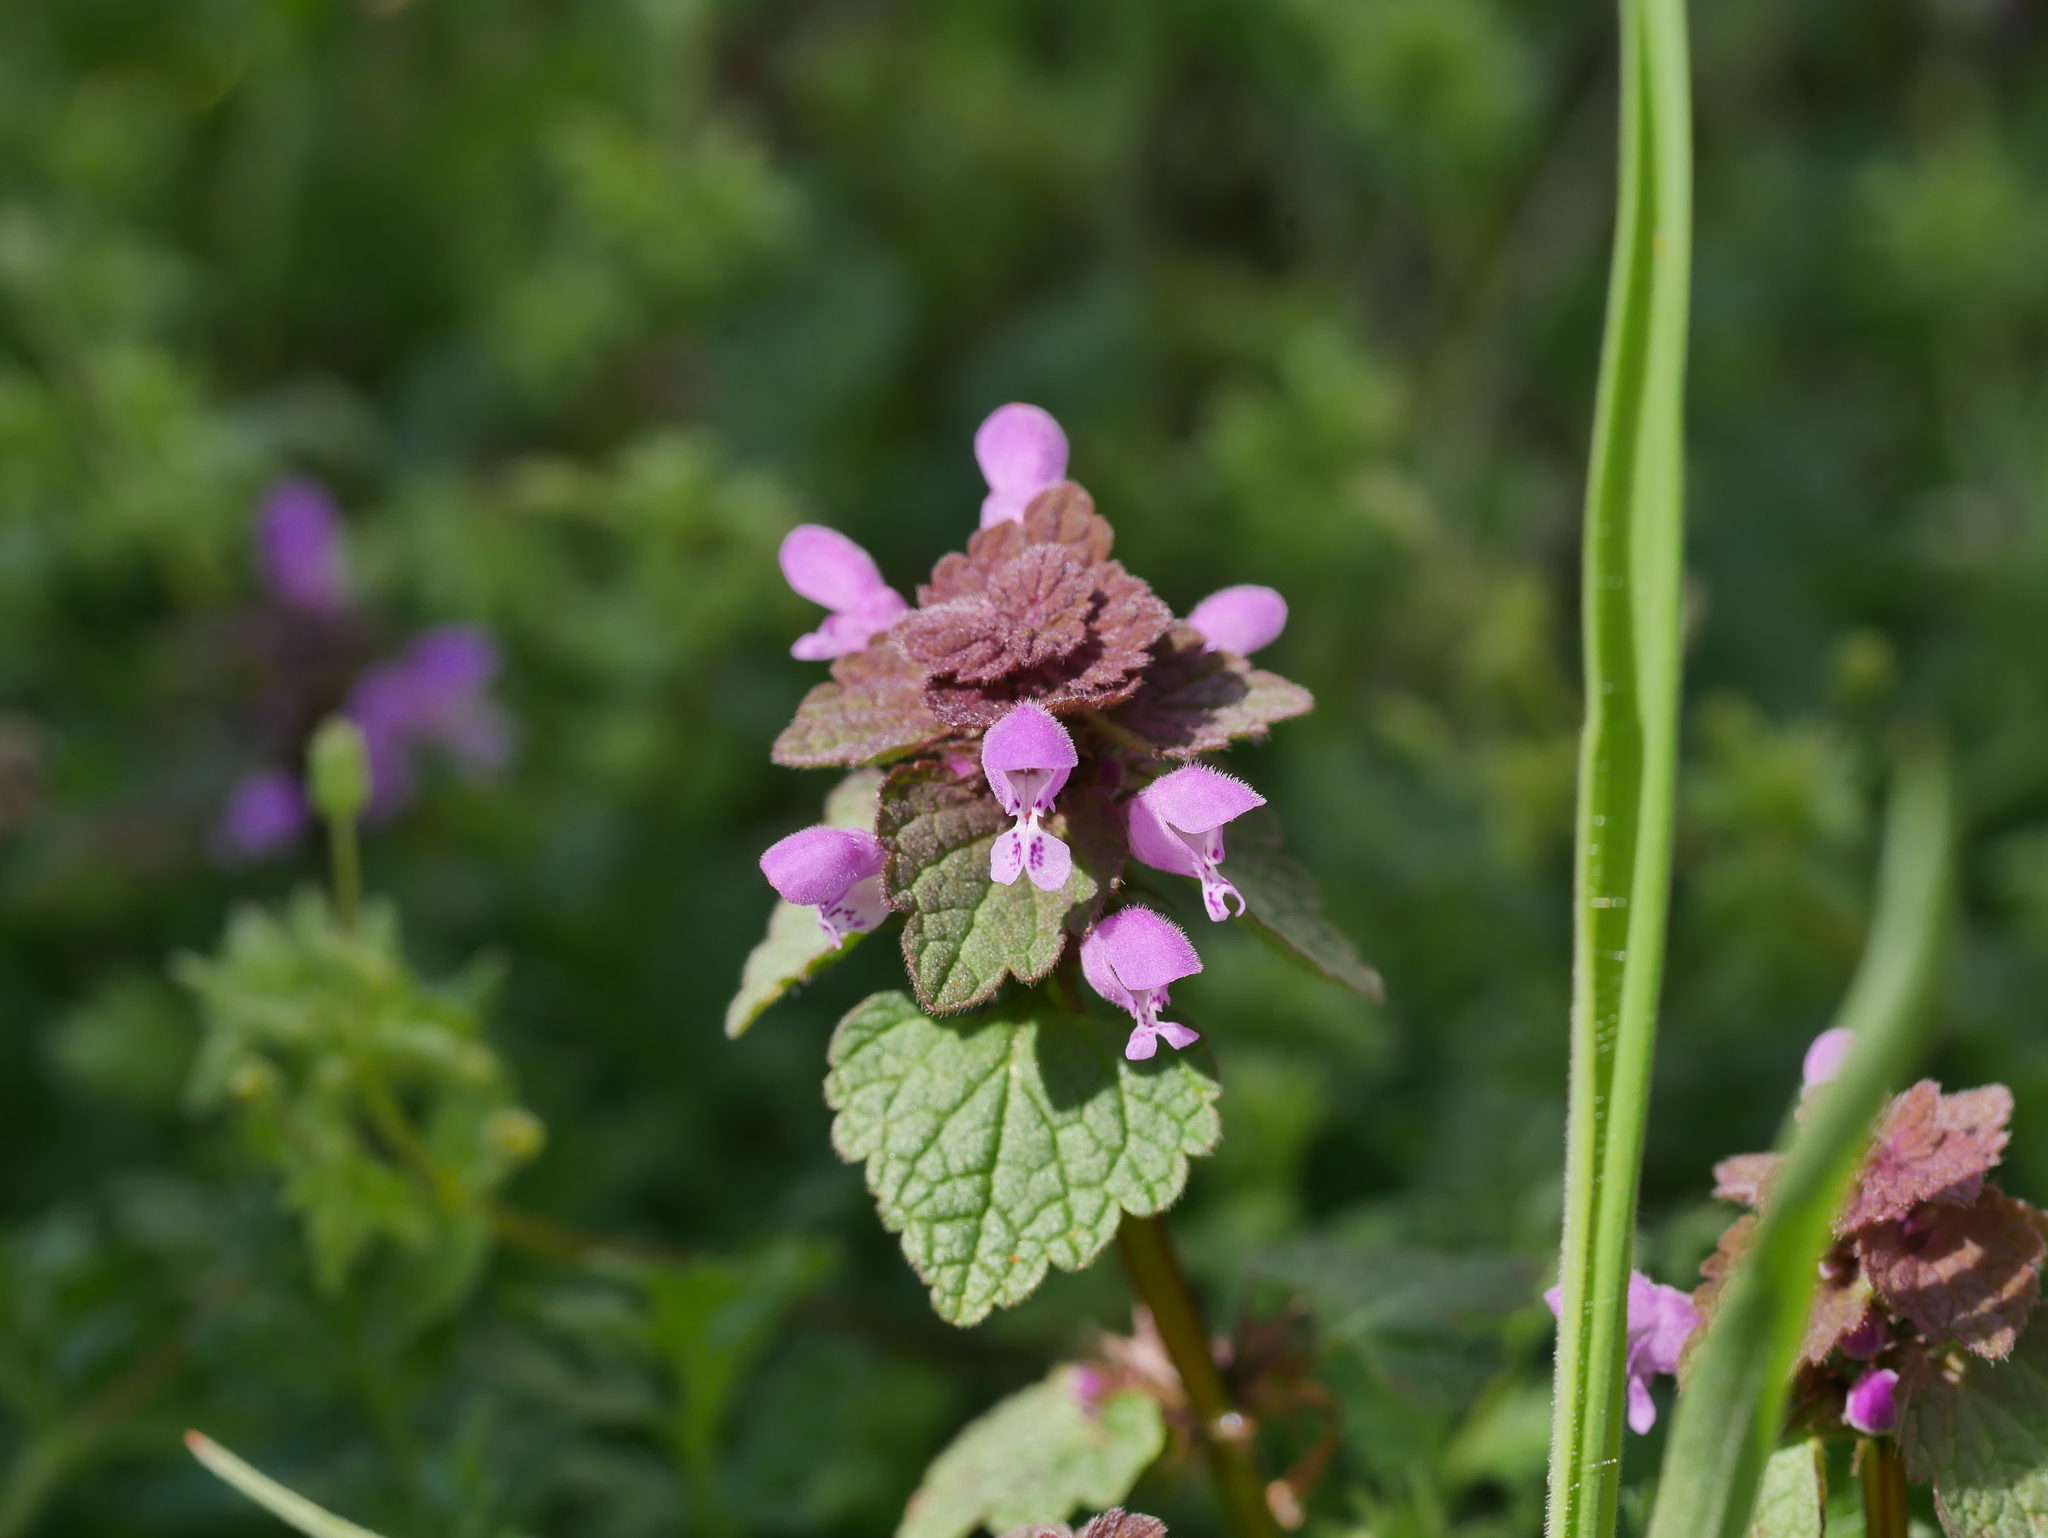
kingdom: Plantae
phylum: Tracheophyta
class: Magnoliopsida
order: Lamiales
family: Lamiaceae
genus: Lamium
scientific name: Lamium purpureum
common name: Red dead-nettle
